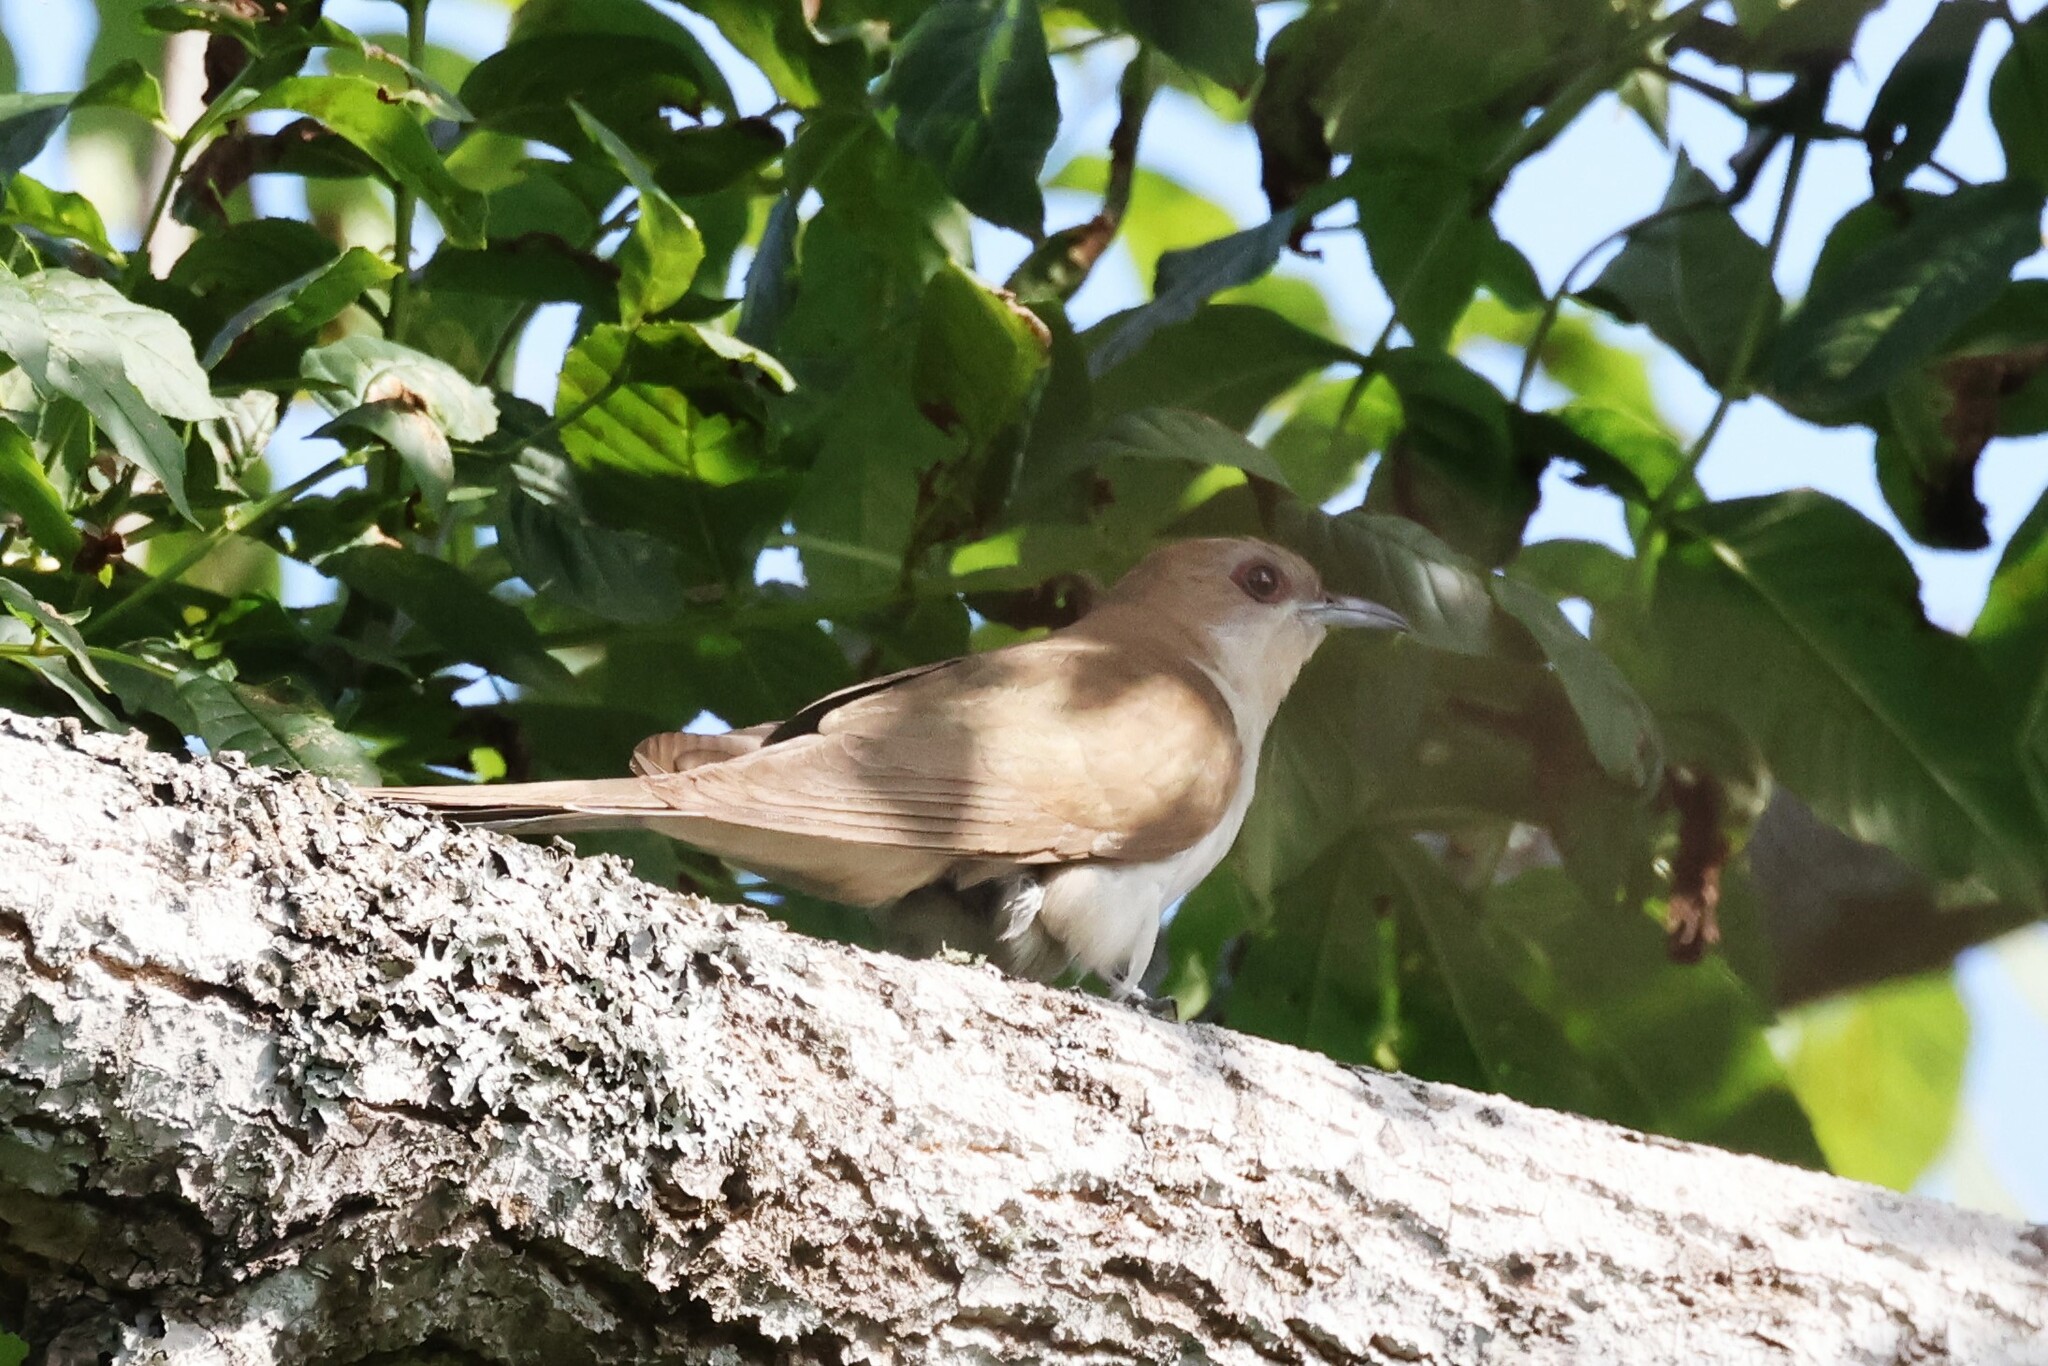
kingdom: Animalia
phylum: Chordata
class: Aves
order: Cuculiformes
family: Cuculidae
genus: Coccyzus
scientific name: Coccyzus erythropthalmus
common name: Black-billed cuckoo
